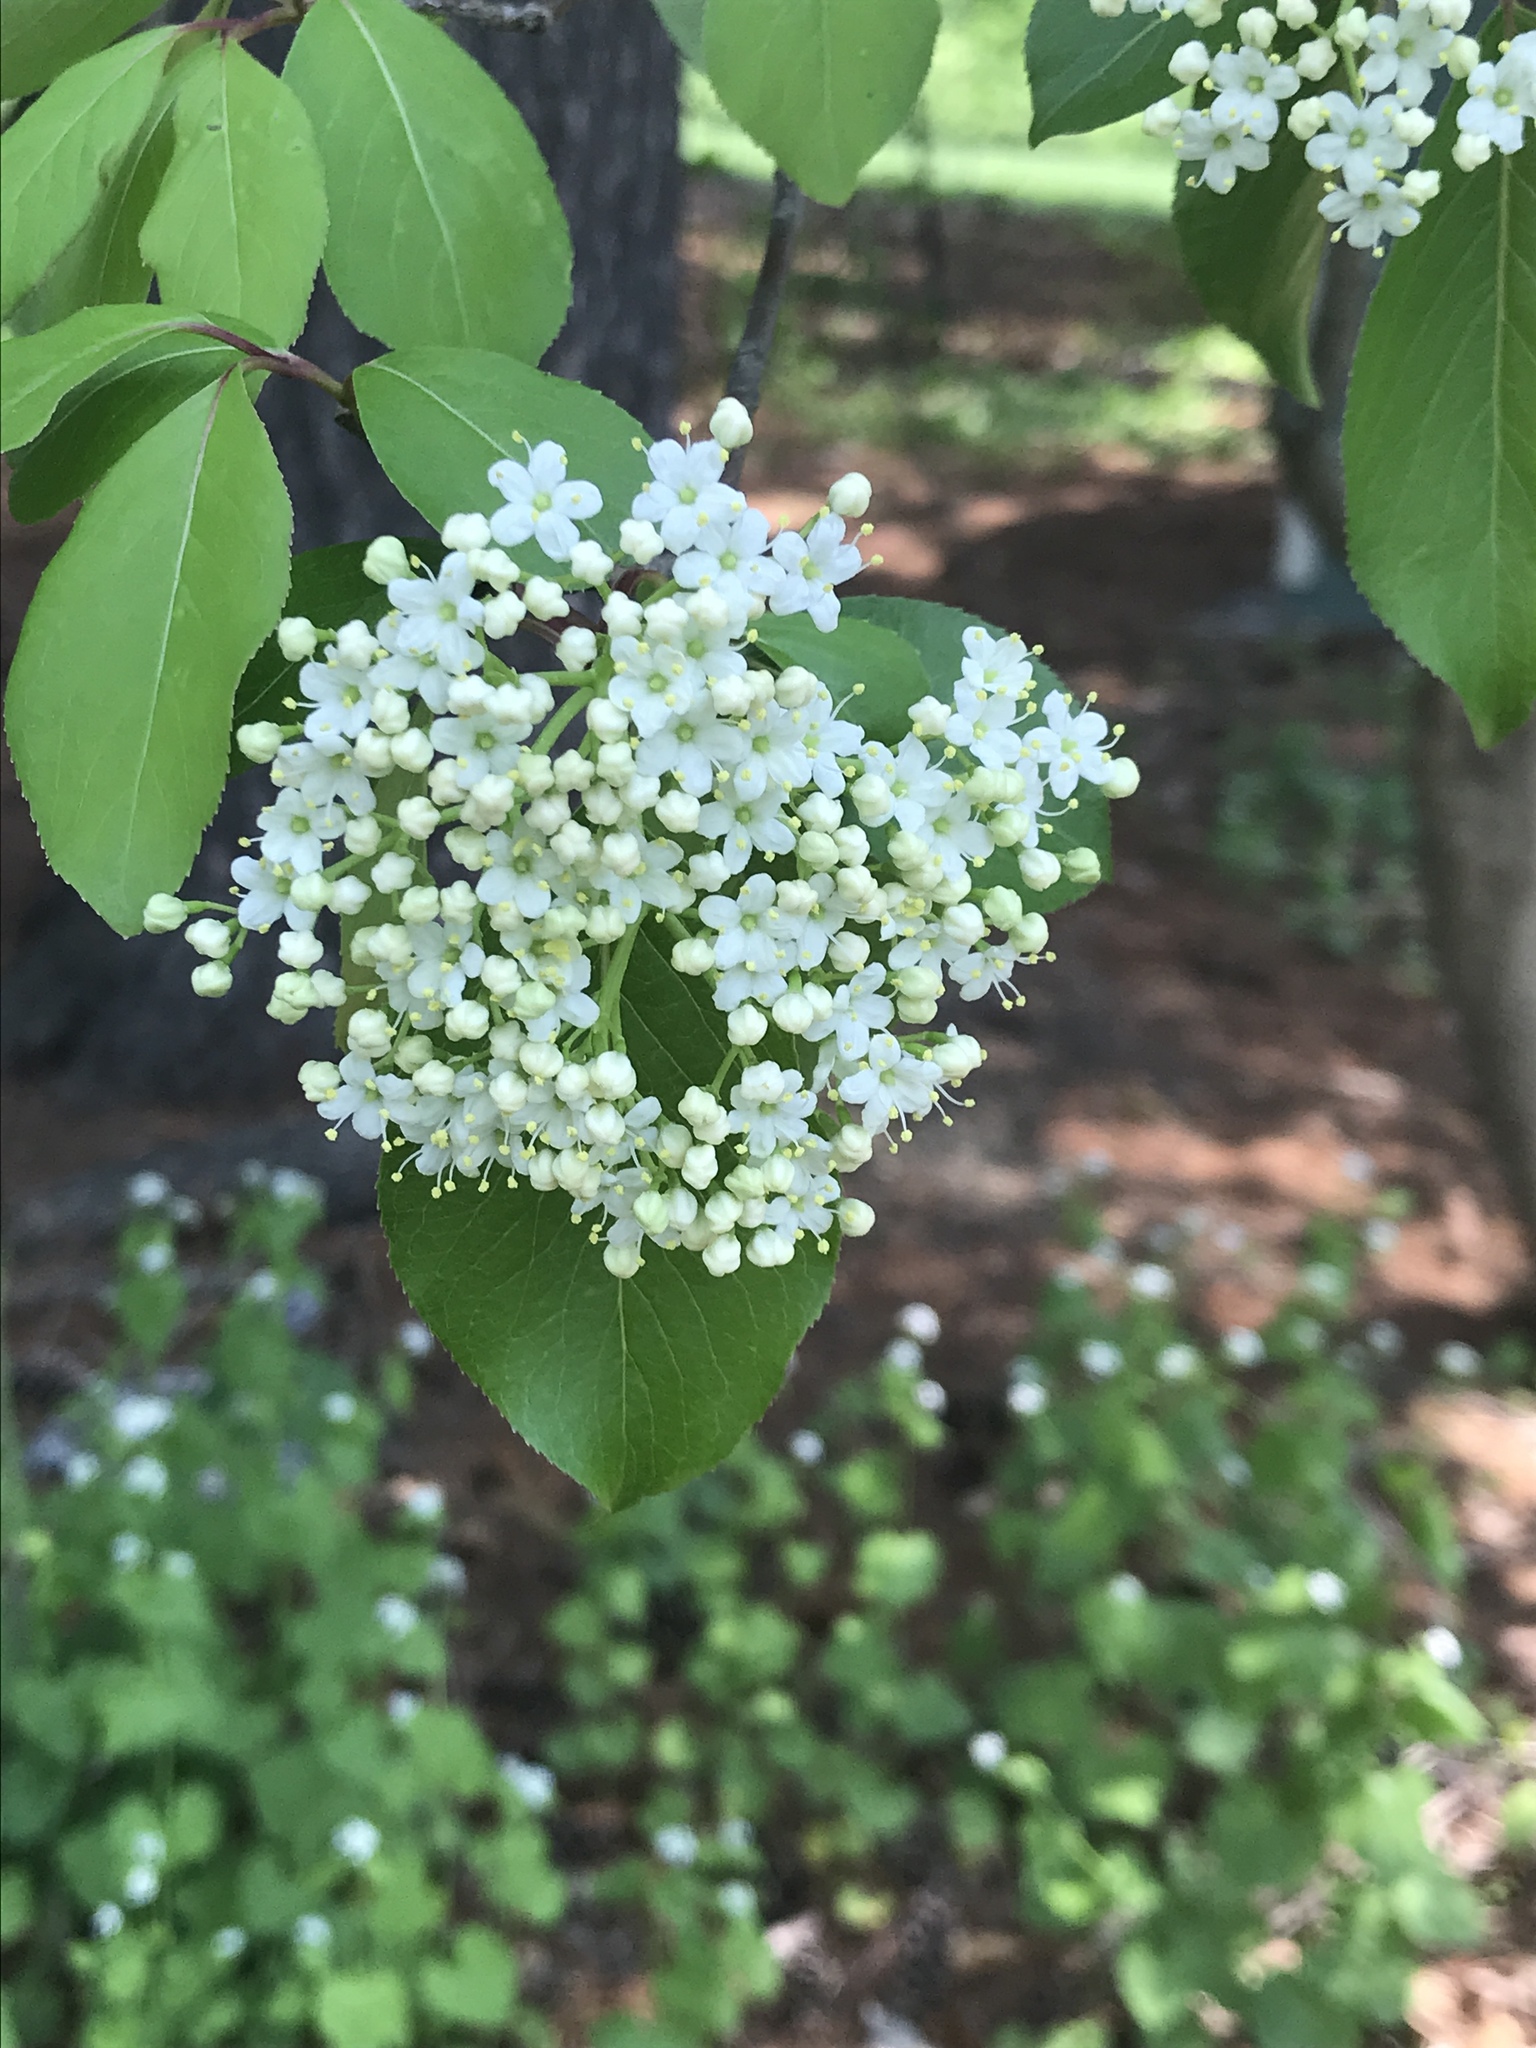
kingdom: Plantae
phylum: Tracheophyta
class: Magnoliopsida
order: Dipsacales
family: Viburnaceae
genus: Viburnum
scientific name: Viburnum prunifolium
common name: Black haw
